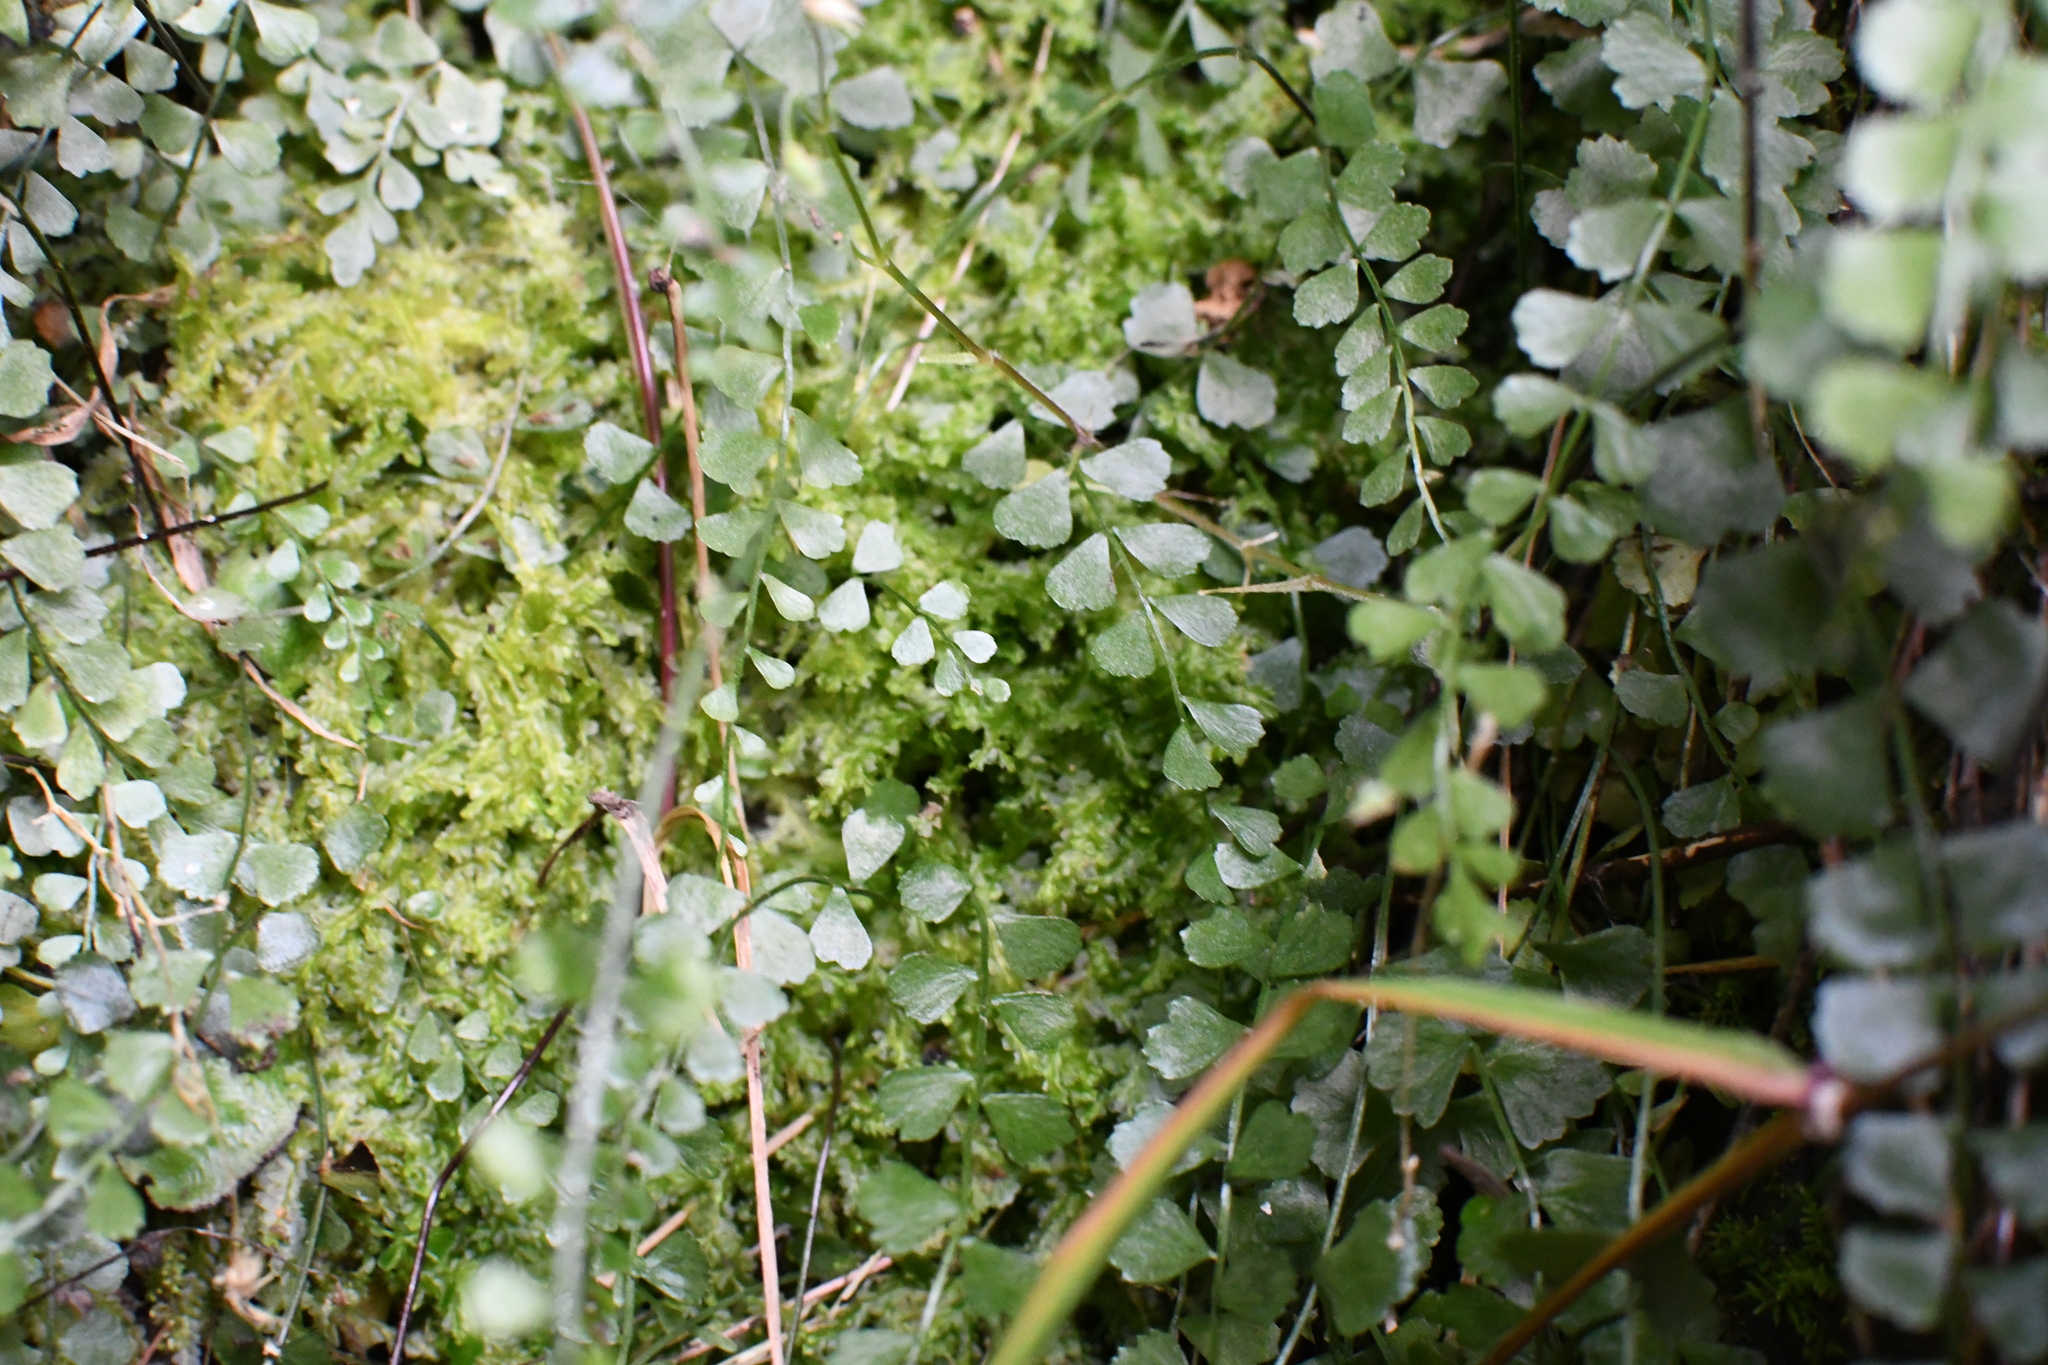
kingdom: Plantae
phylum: Tracheophyta
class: Polypodiopsida
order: Polypodiales
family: Aspleniaceae
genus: Asplenium
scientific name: Asplenium flabellifolium
